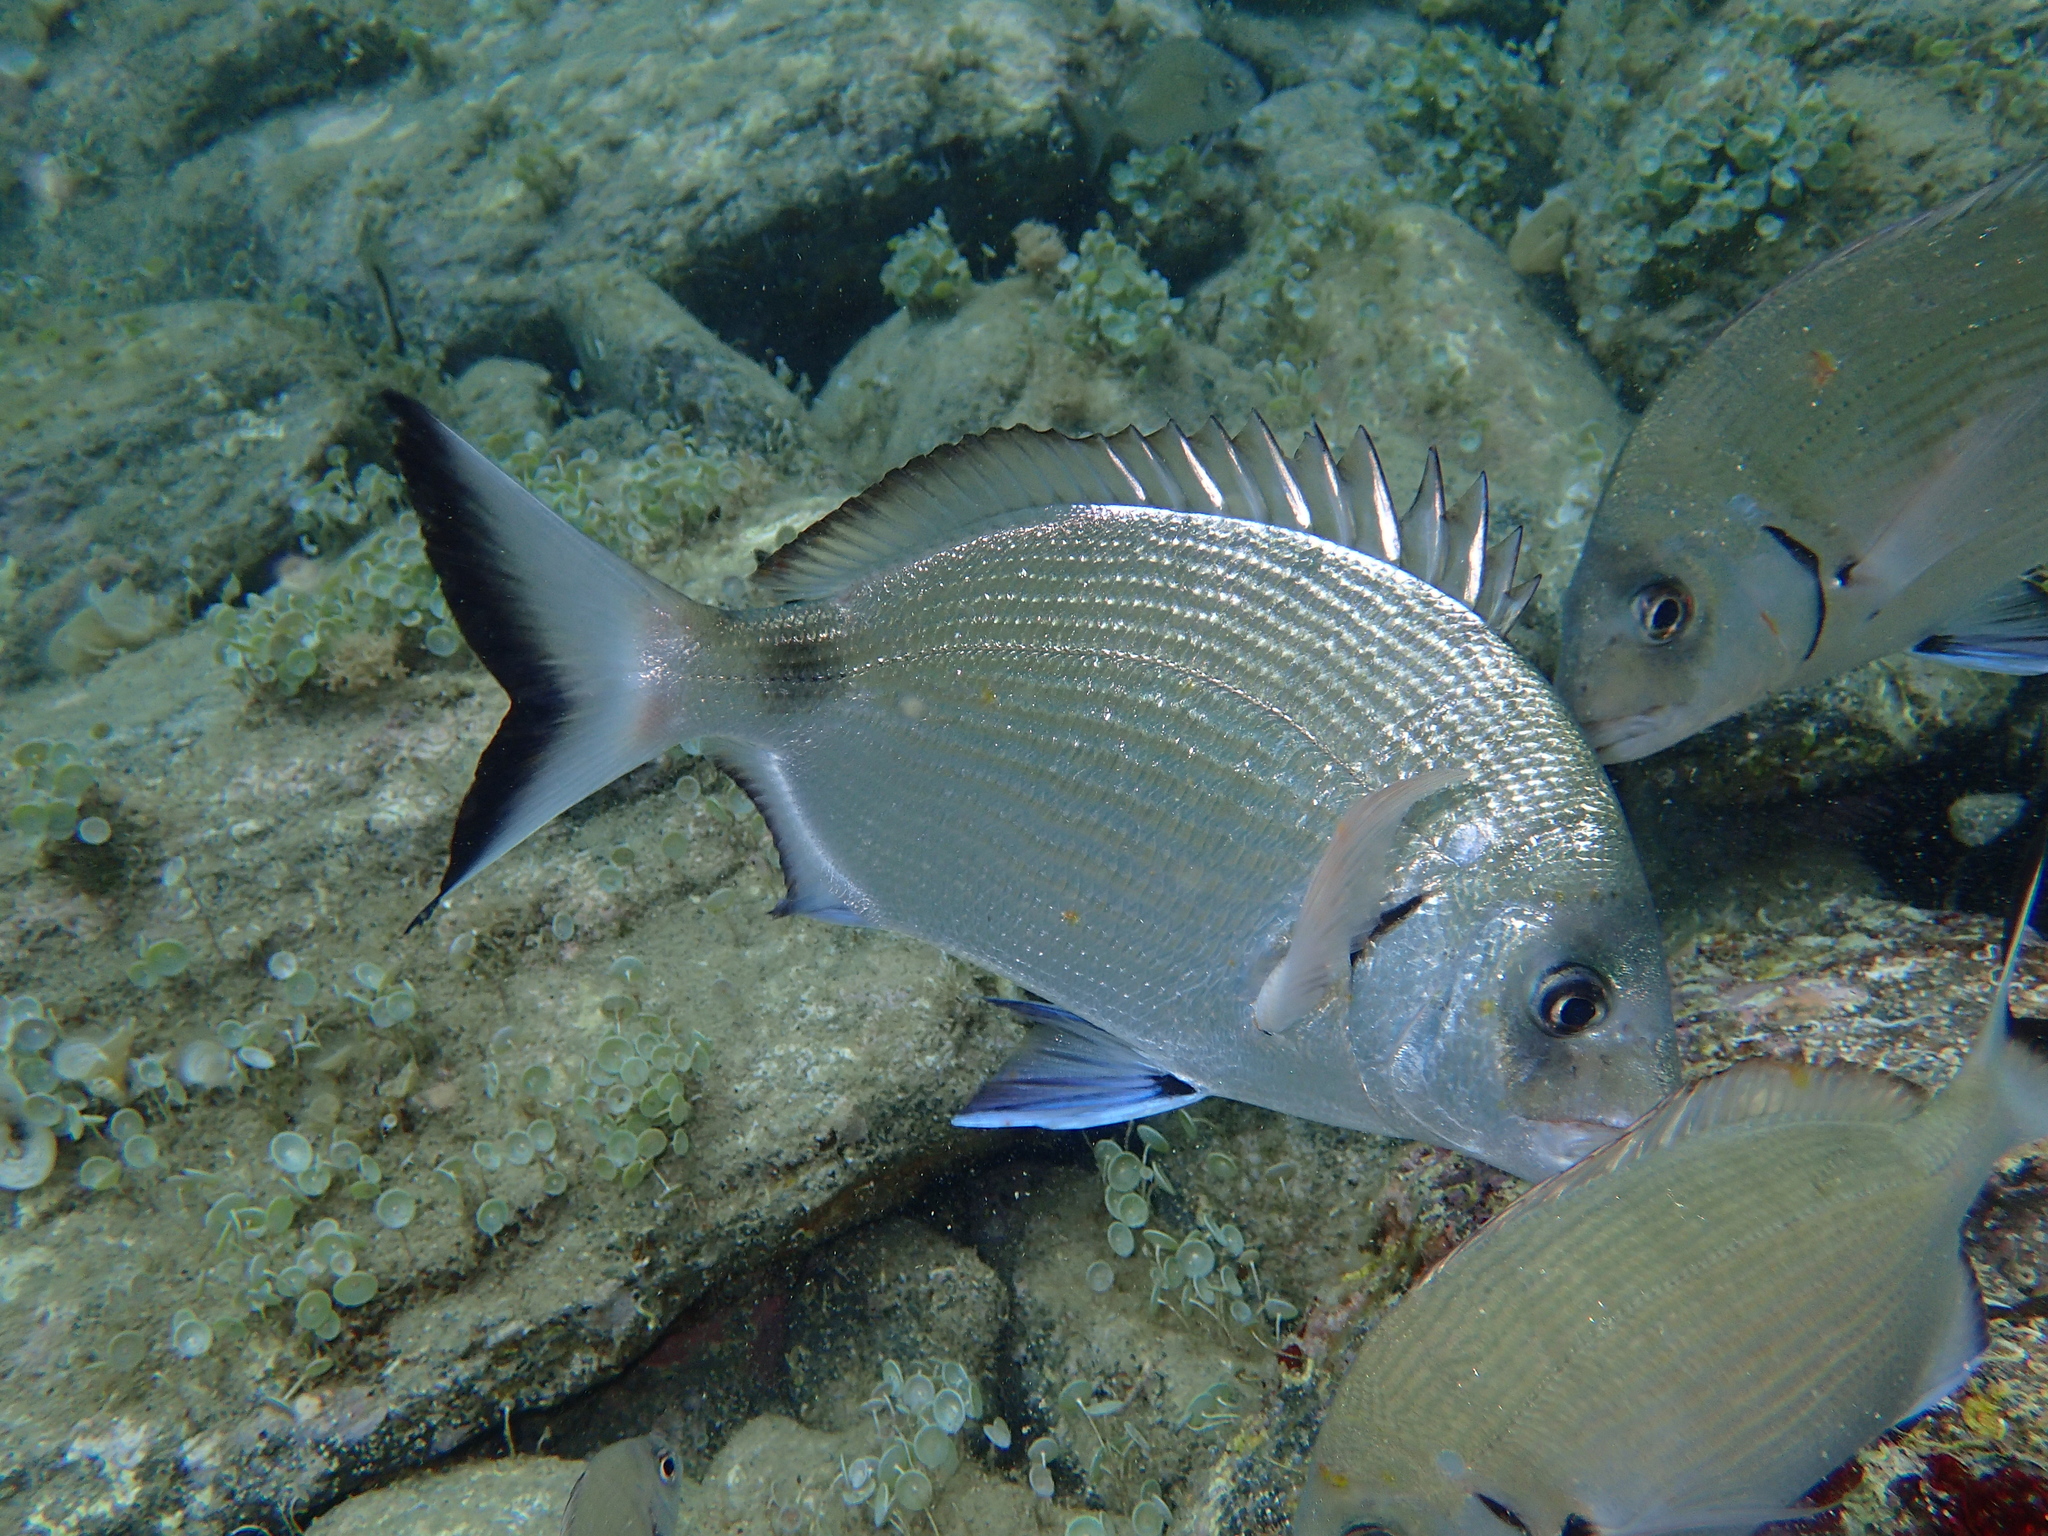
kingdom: Animalia
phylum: Chordata
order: Perciformes
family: Sparidae
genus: Diplodus
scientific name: Diplodus sargus
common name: White seabream
